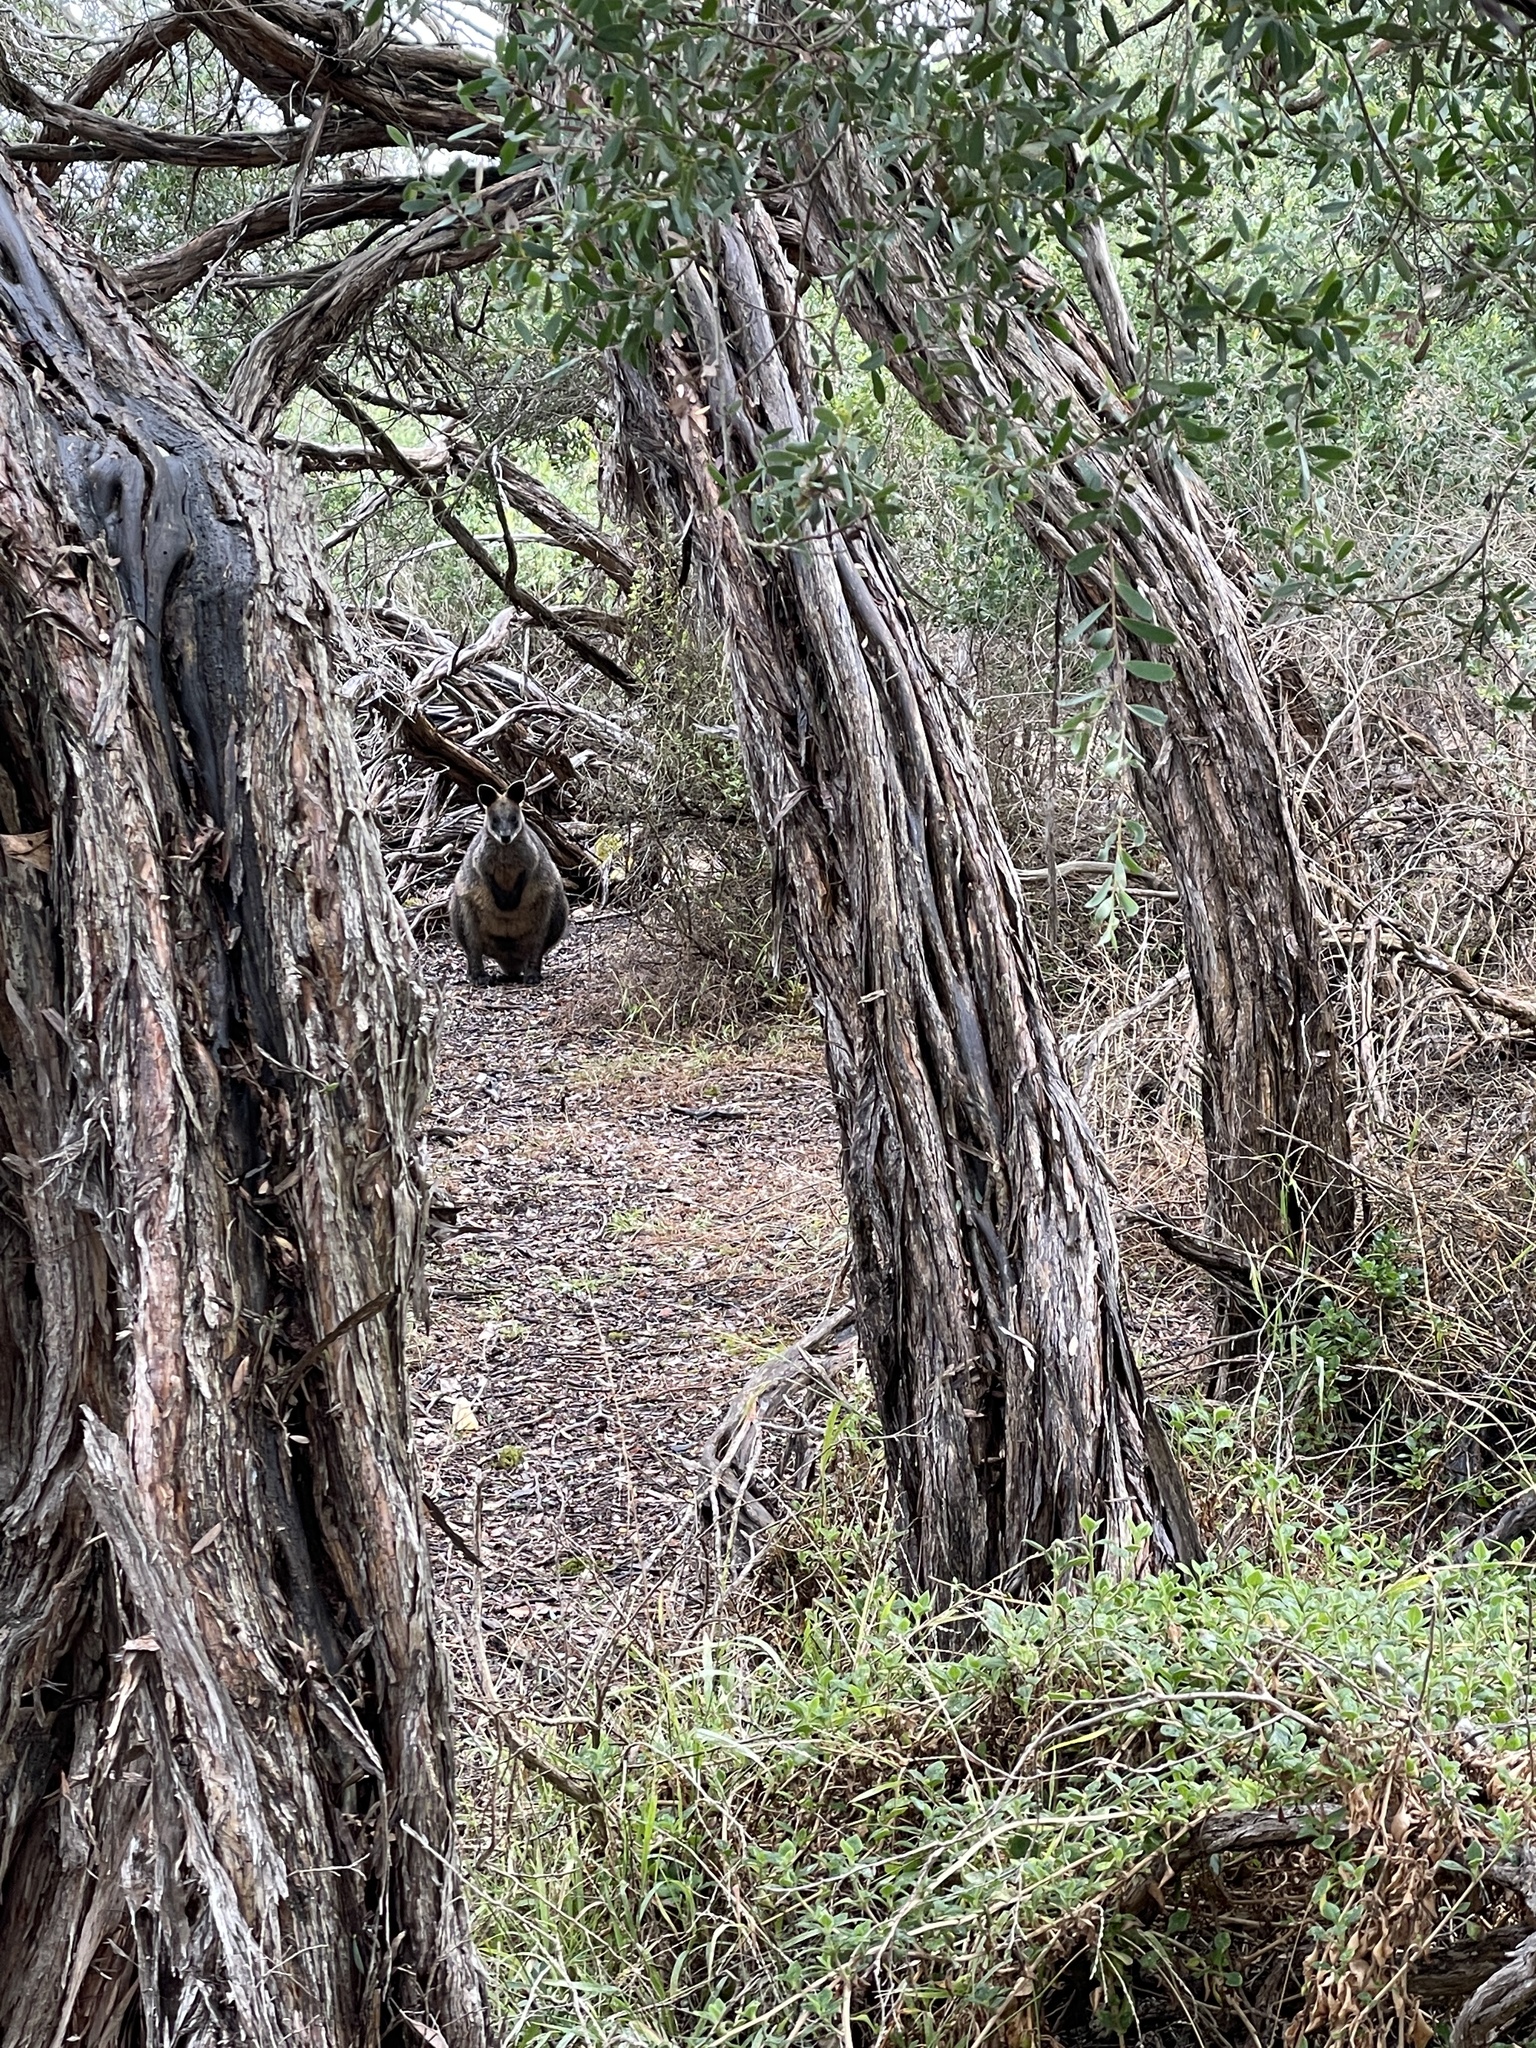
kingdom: Animalia
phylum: Chordata
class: Mammalia
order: Diprotodontia
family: Macropodidae
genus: Wallabia
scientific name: Wallabia bicolor
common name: Swamp wallaby
